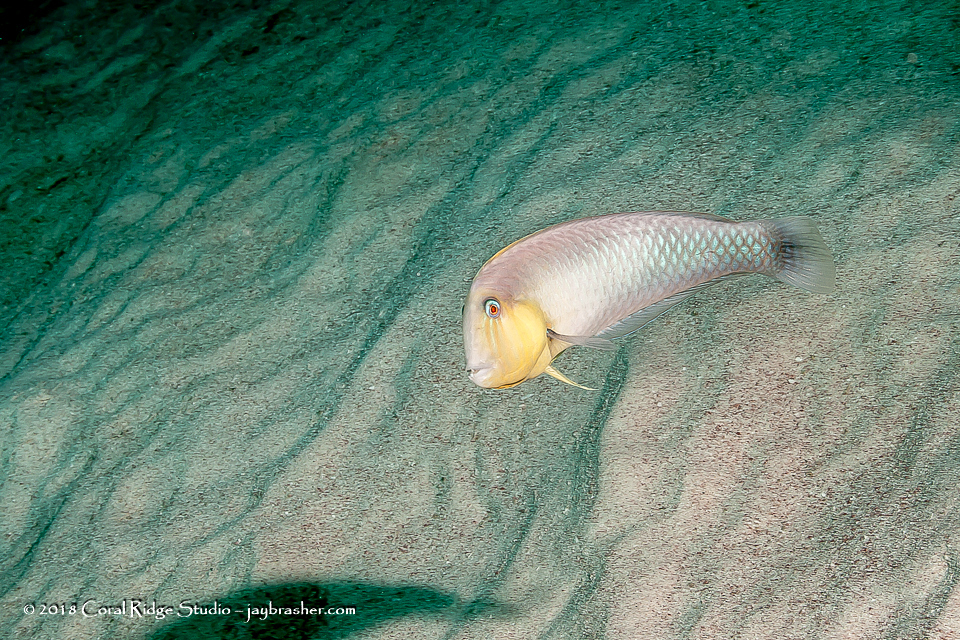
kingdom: Animalia
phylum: Chordata
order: Perciformes
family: Labridae
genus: Xyrichtys
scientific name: Xyrichtys martinicensis
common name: Rosy razorfish
